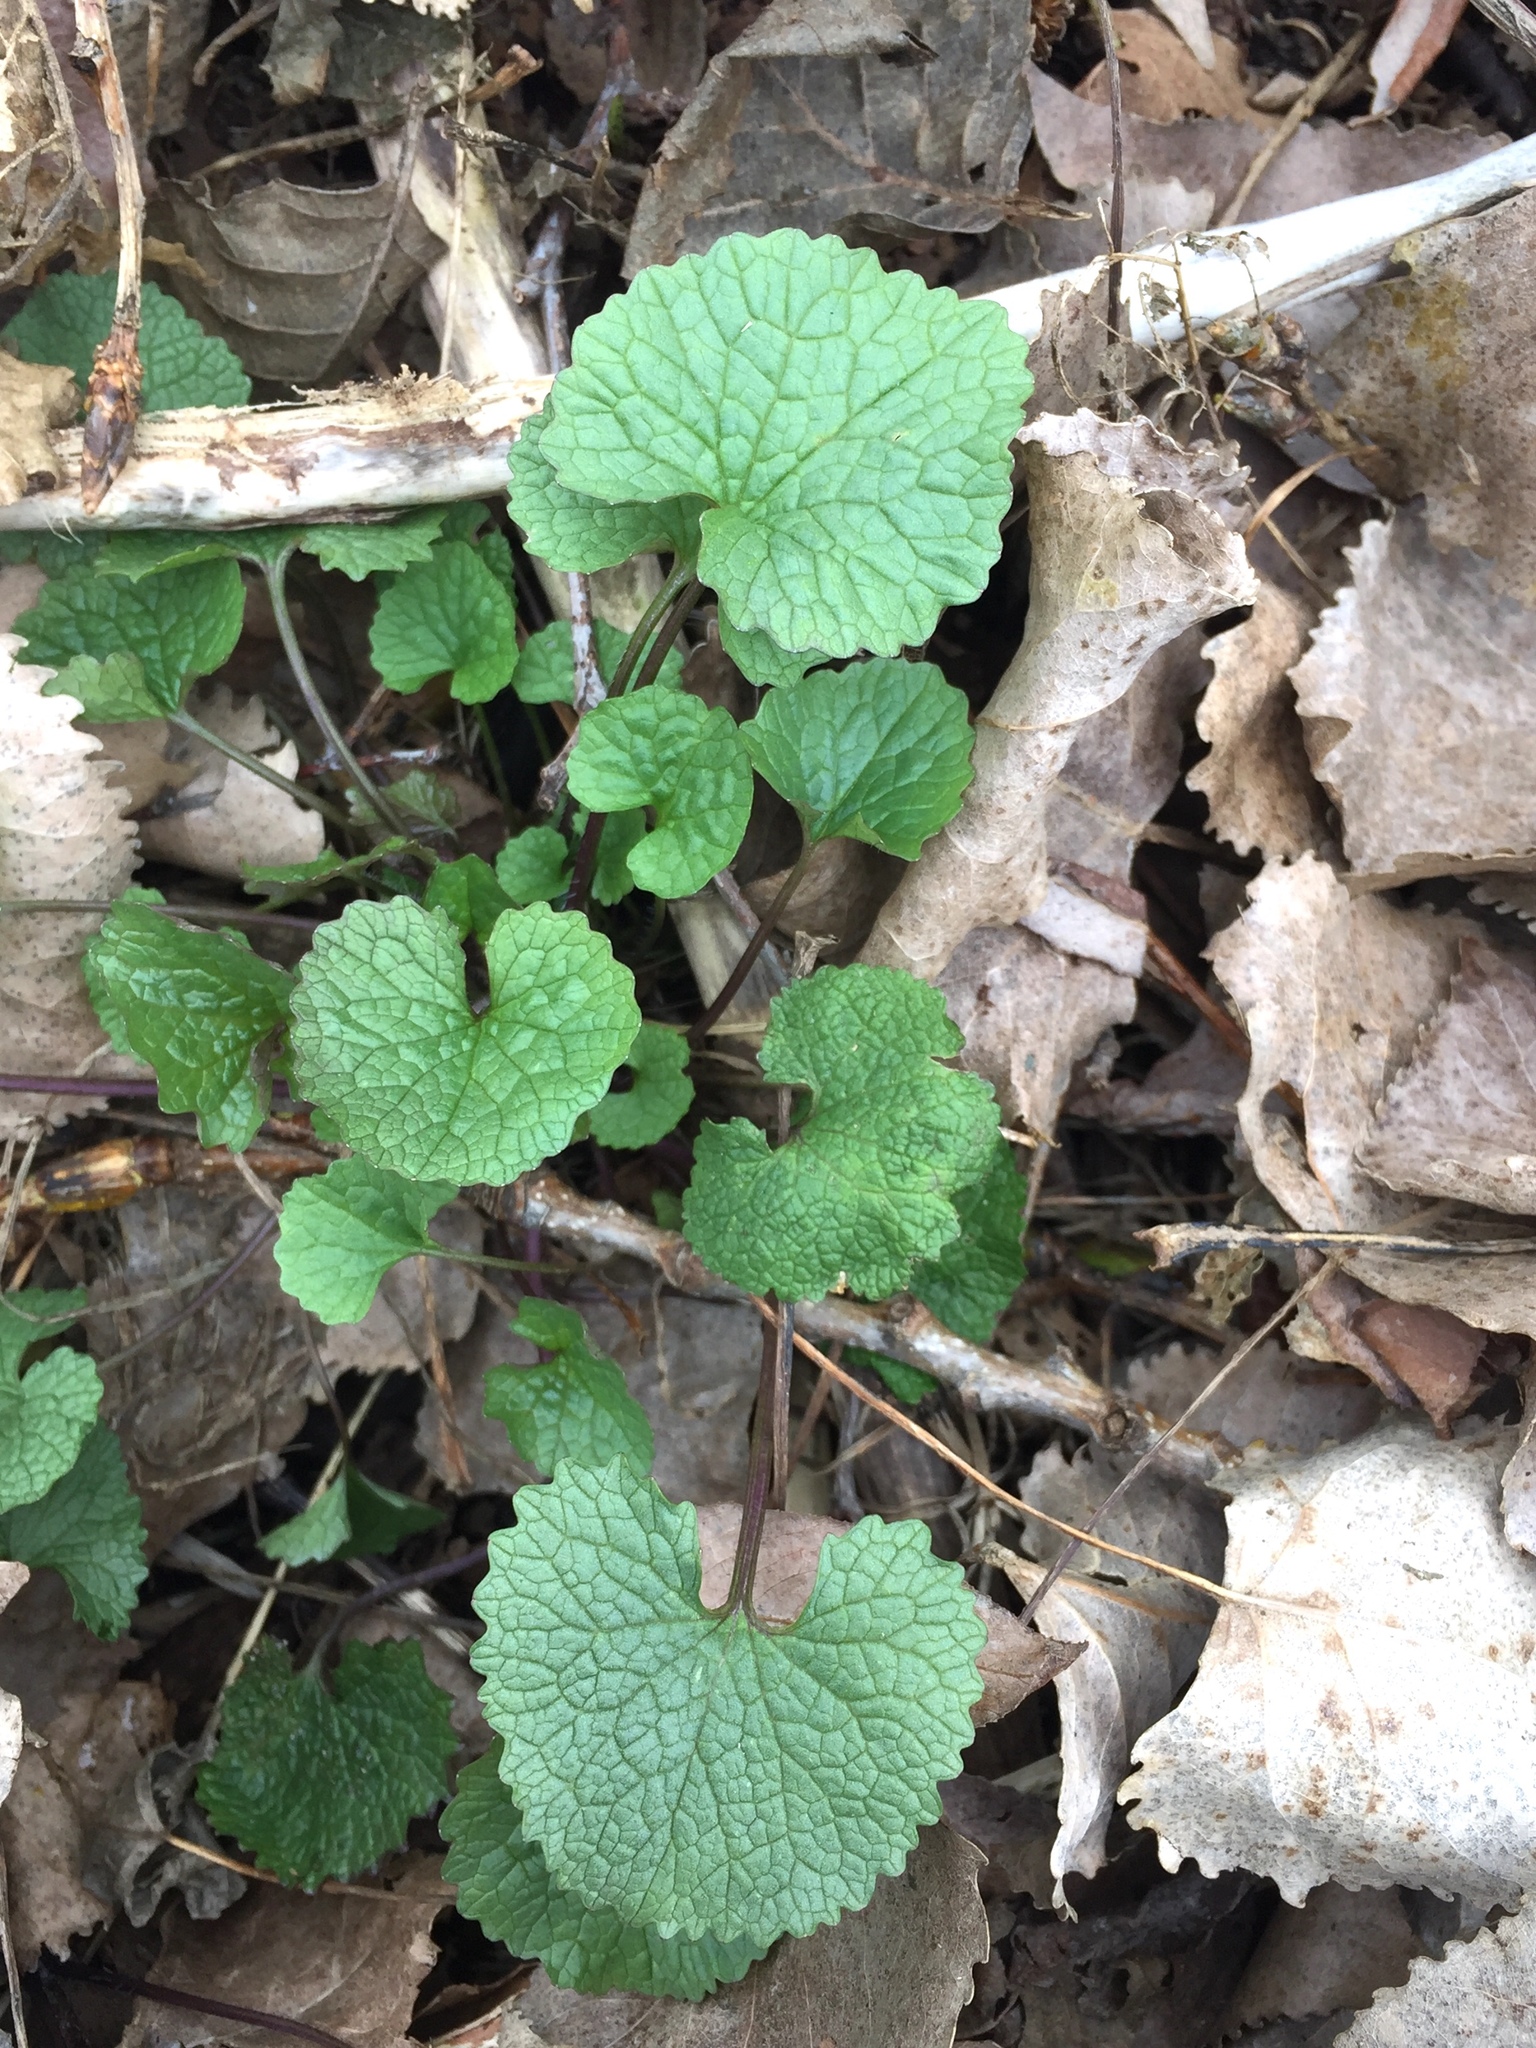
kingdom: Plantae
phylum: Tracheophyta
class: Magnoliopsida
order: Brassicales
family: Brassicaceae
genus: Alliaria
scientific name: Alliaria petiolata
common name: Garlic mustard
